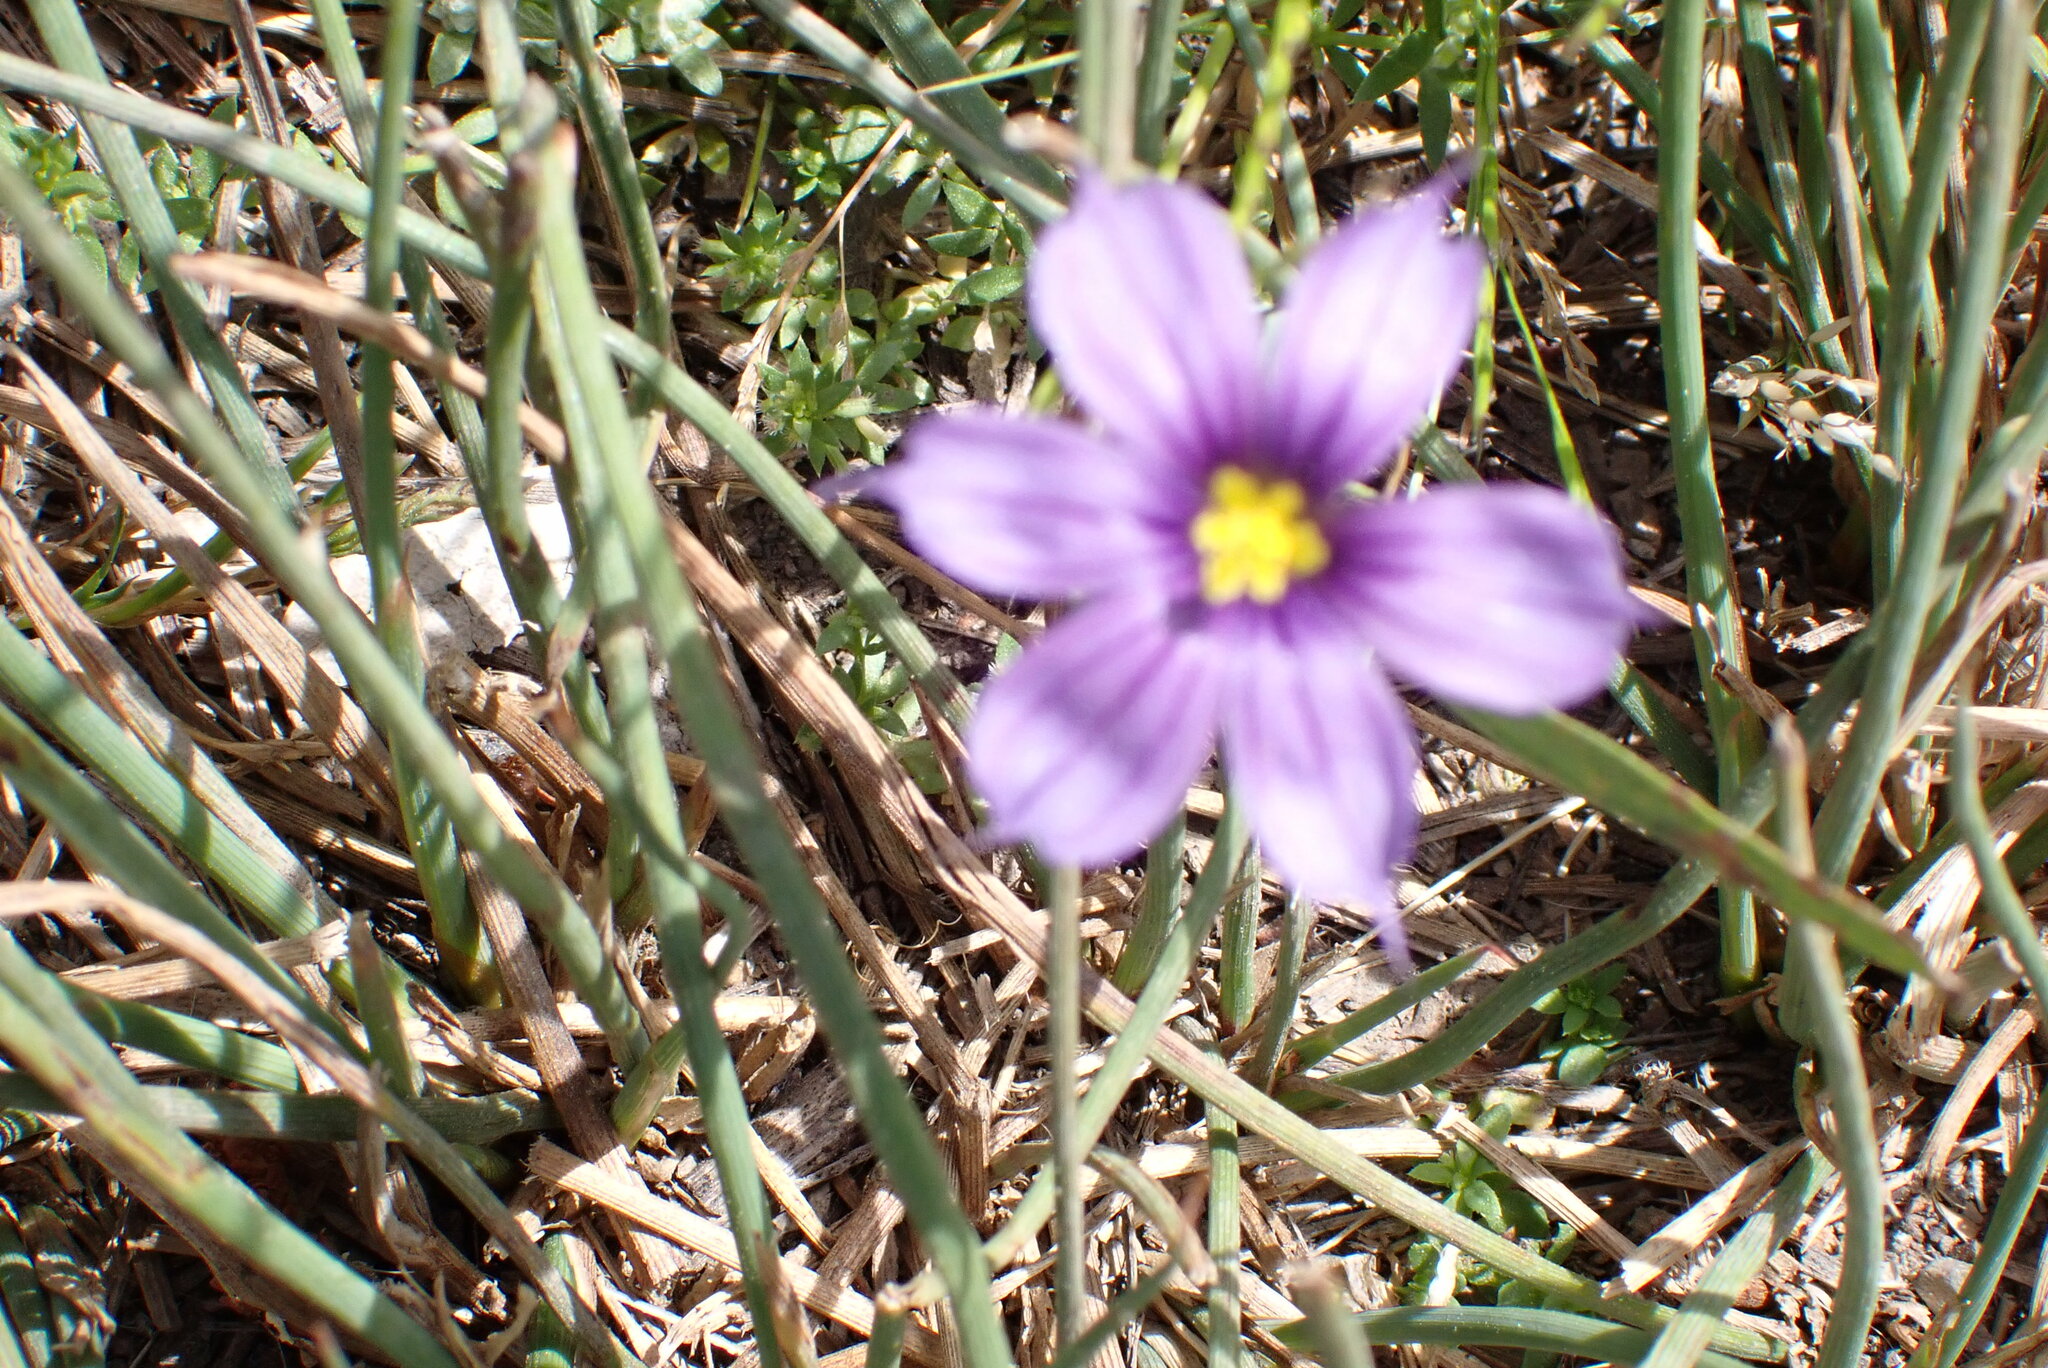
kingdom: Plantae
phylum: Tracheophyta
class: Liliopsida
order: Asparagales
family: Iridaceae
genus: Sisyrinchium
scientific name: Sisyrinchium bellum
